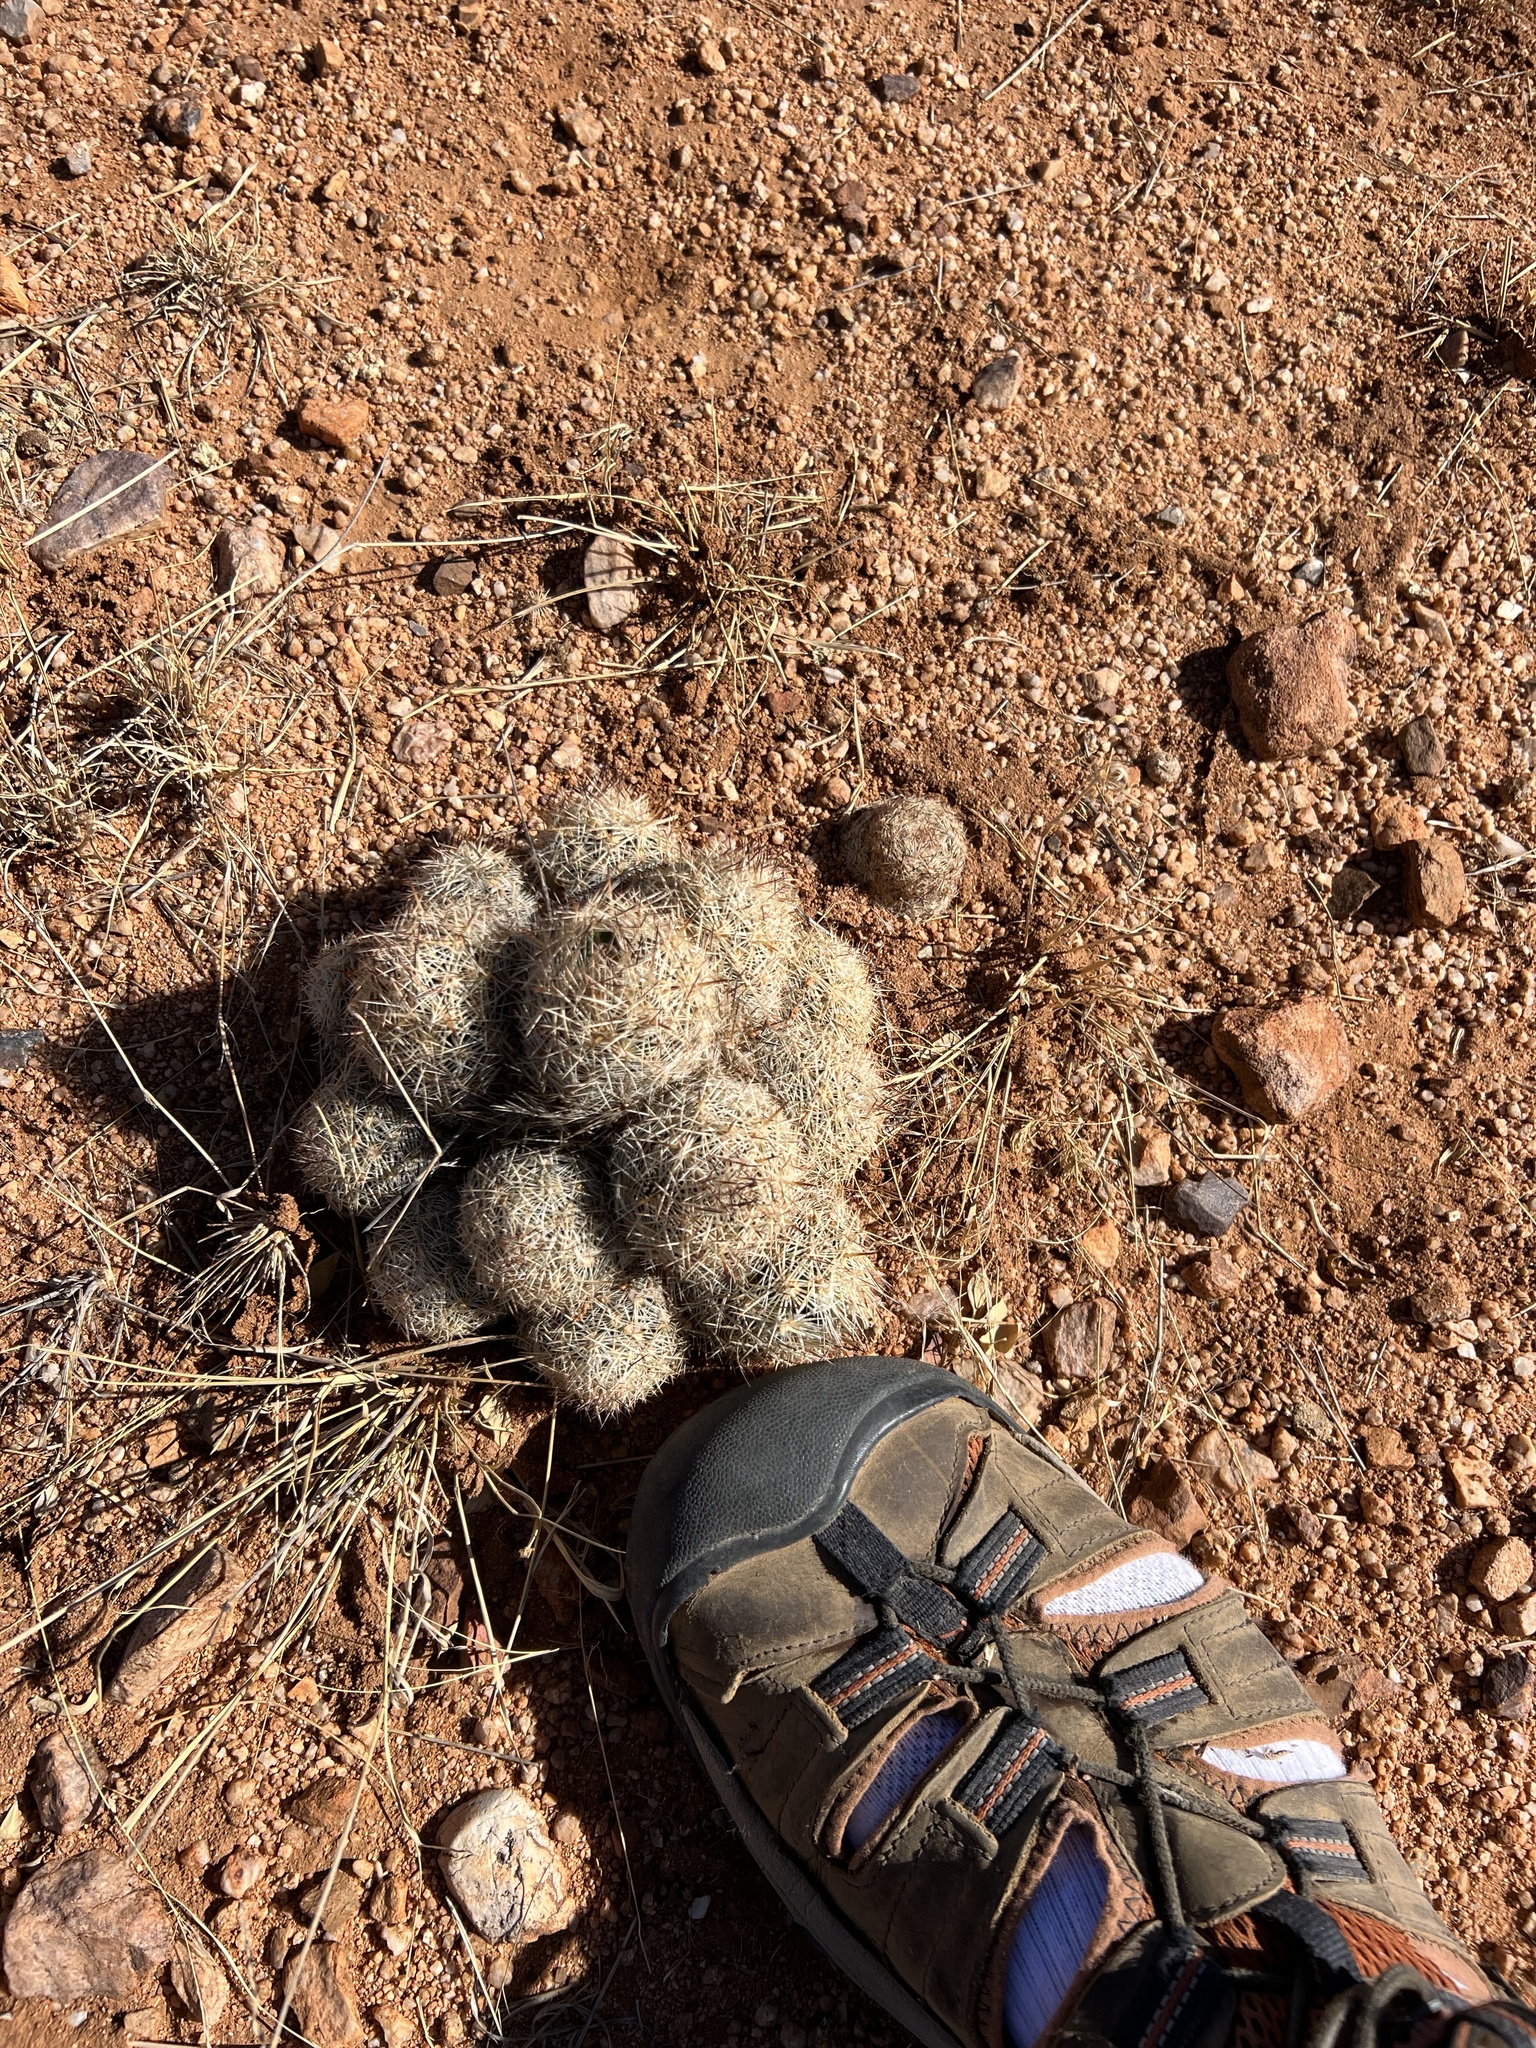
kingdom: Plantae
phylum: Tracheophyta
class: Magnoliopsida
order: Caryophyllales
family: Cactaceae
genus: Pelecyphora
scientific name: Pelecyphora vivipara
